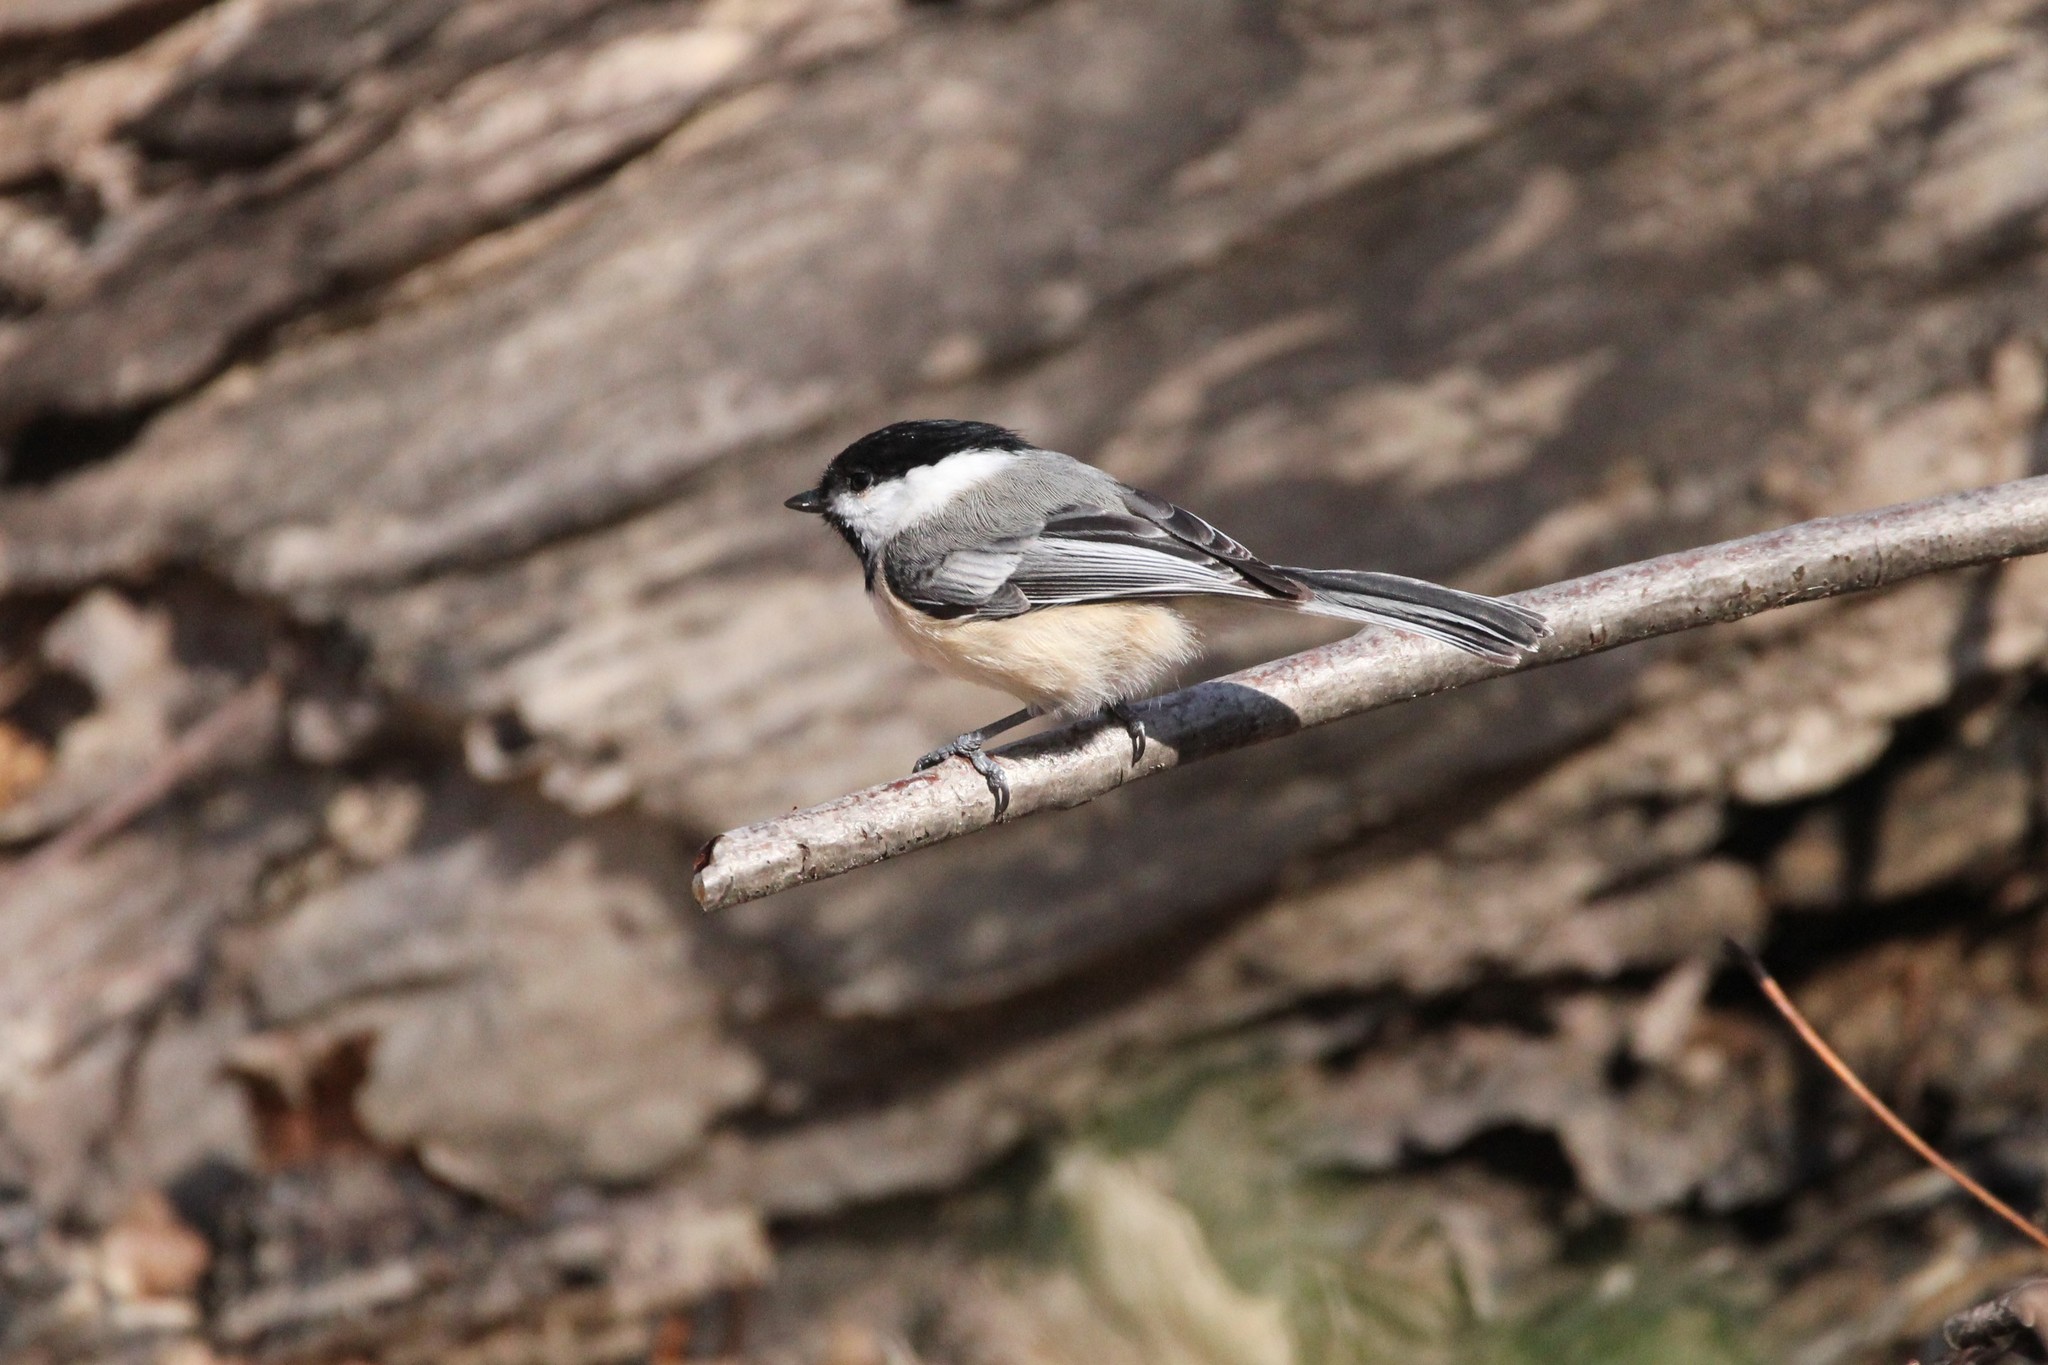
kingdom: Animalia
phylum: Chordata
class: Aves
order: Passeriformes
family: Paridae
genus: Poecile
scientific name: Poecile atricapillus
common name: Black-capped chickadee
